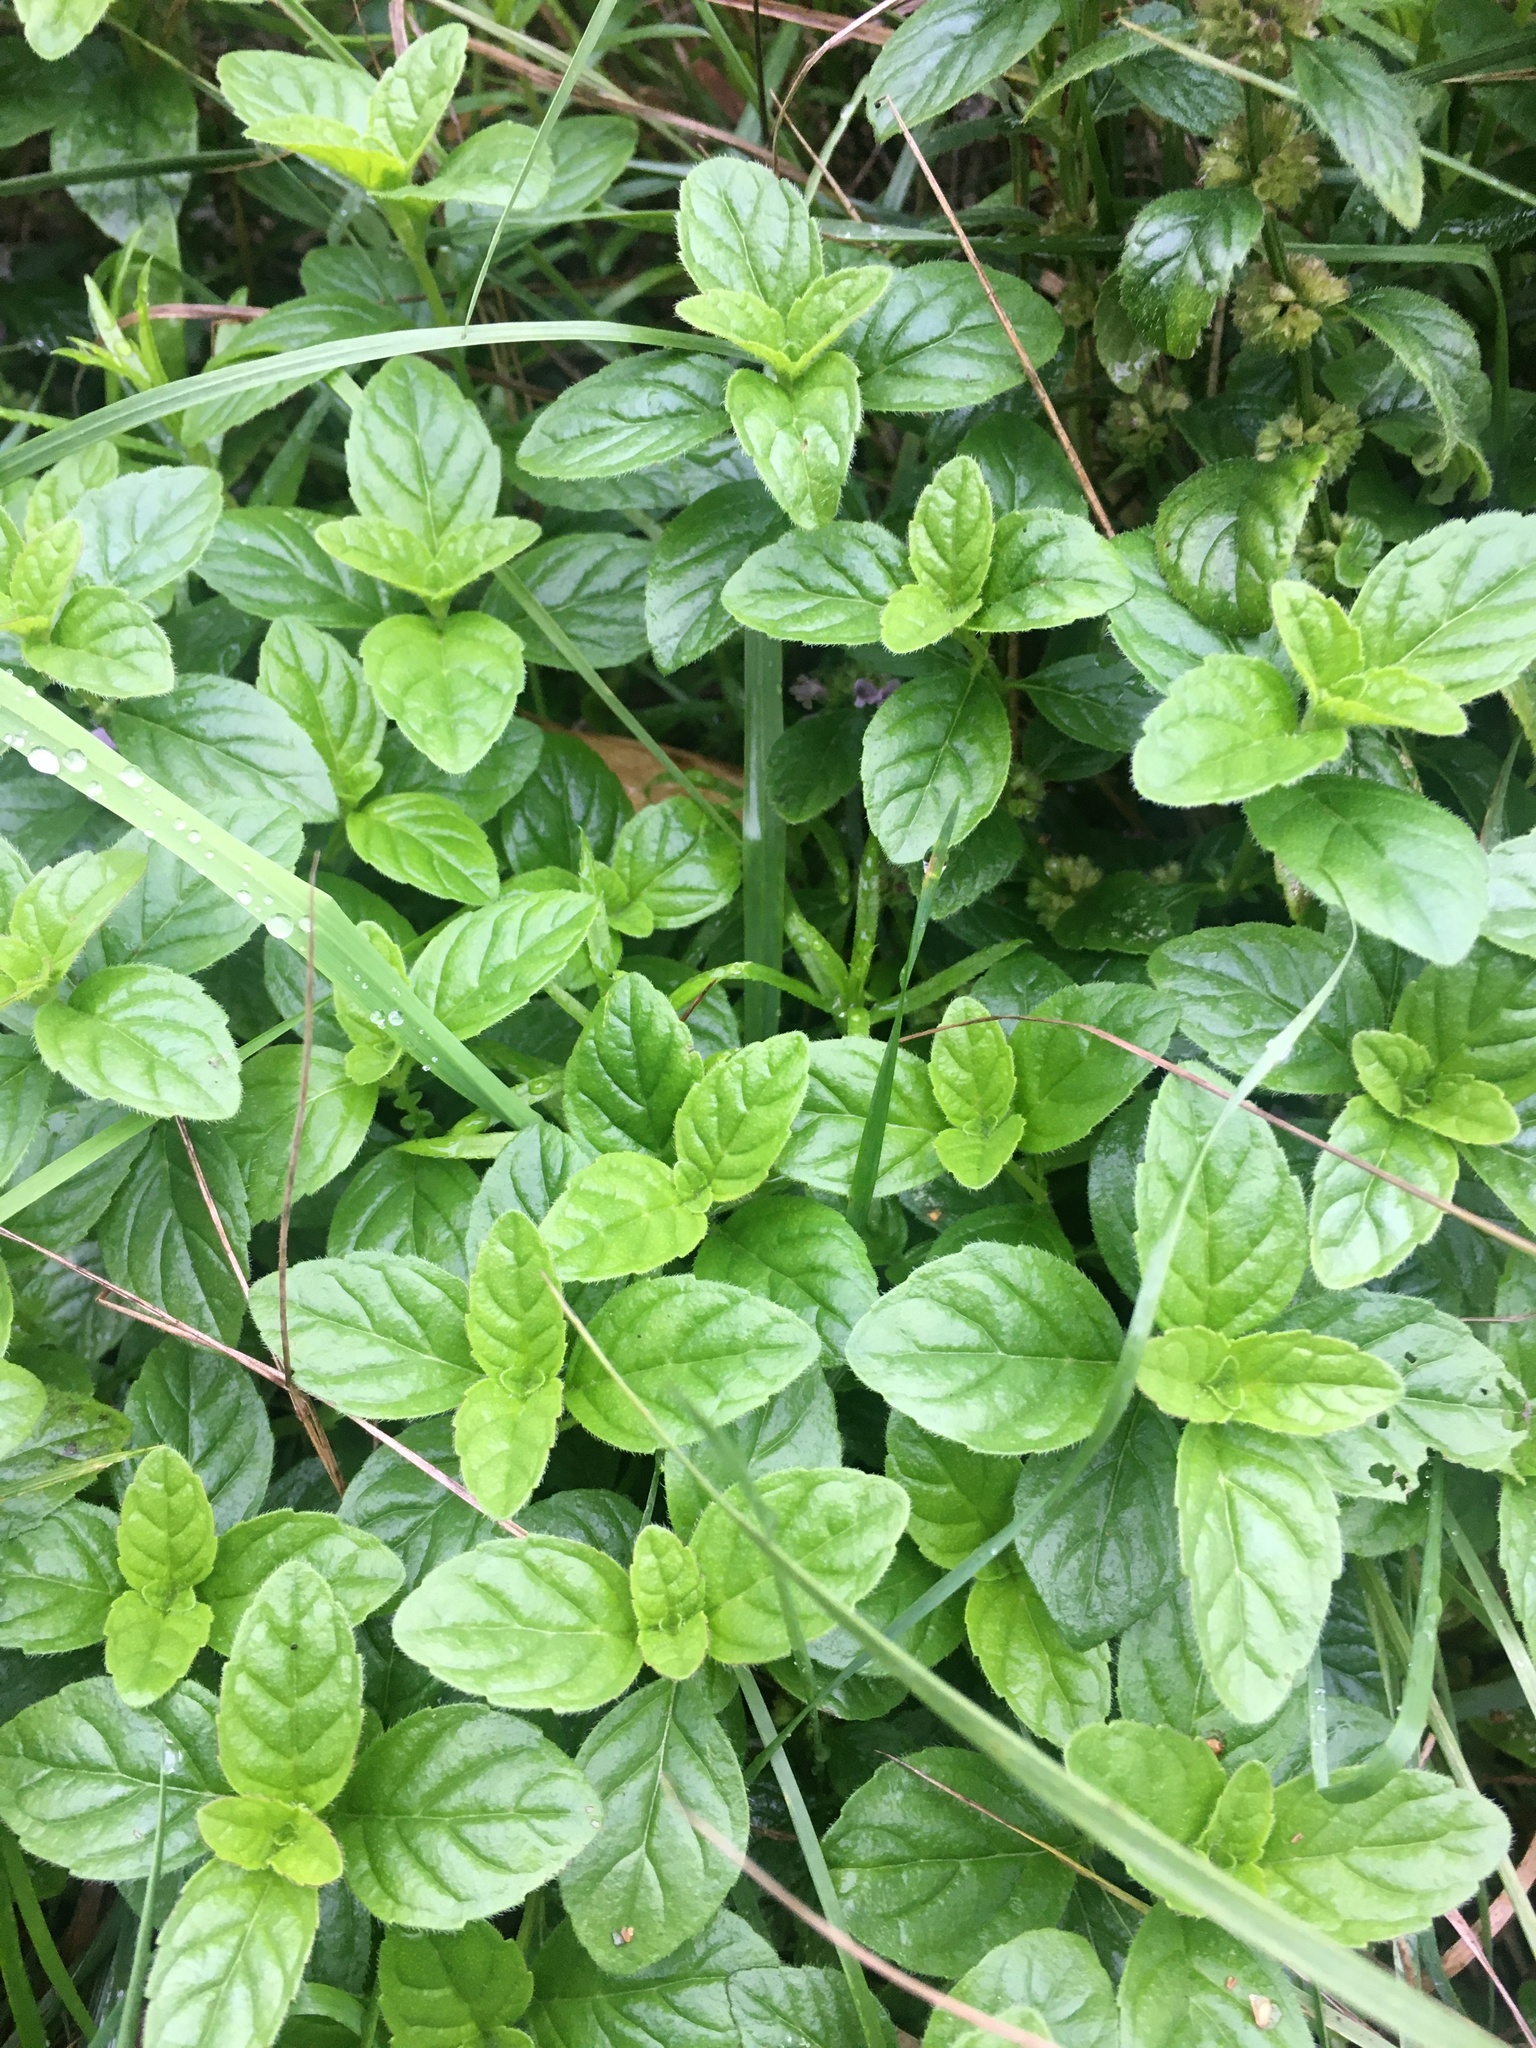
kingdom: Plantae
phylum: Tracheophyta
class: Magnoliopsida
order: Lamiales
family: Lamiaceae
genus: Mentha
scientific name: Mentha arvensis
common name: Corn mint
